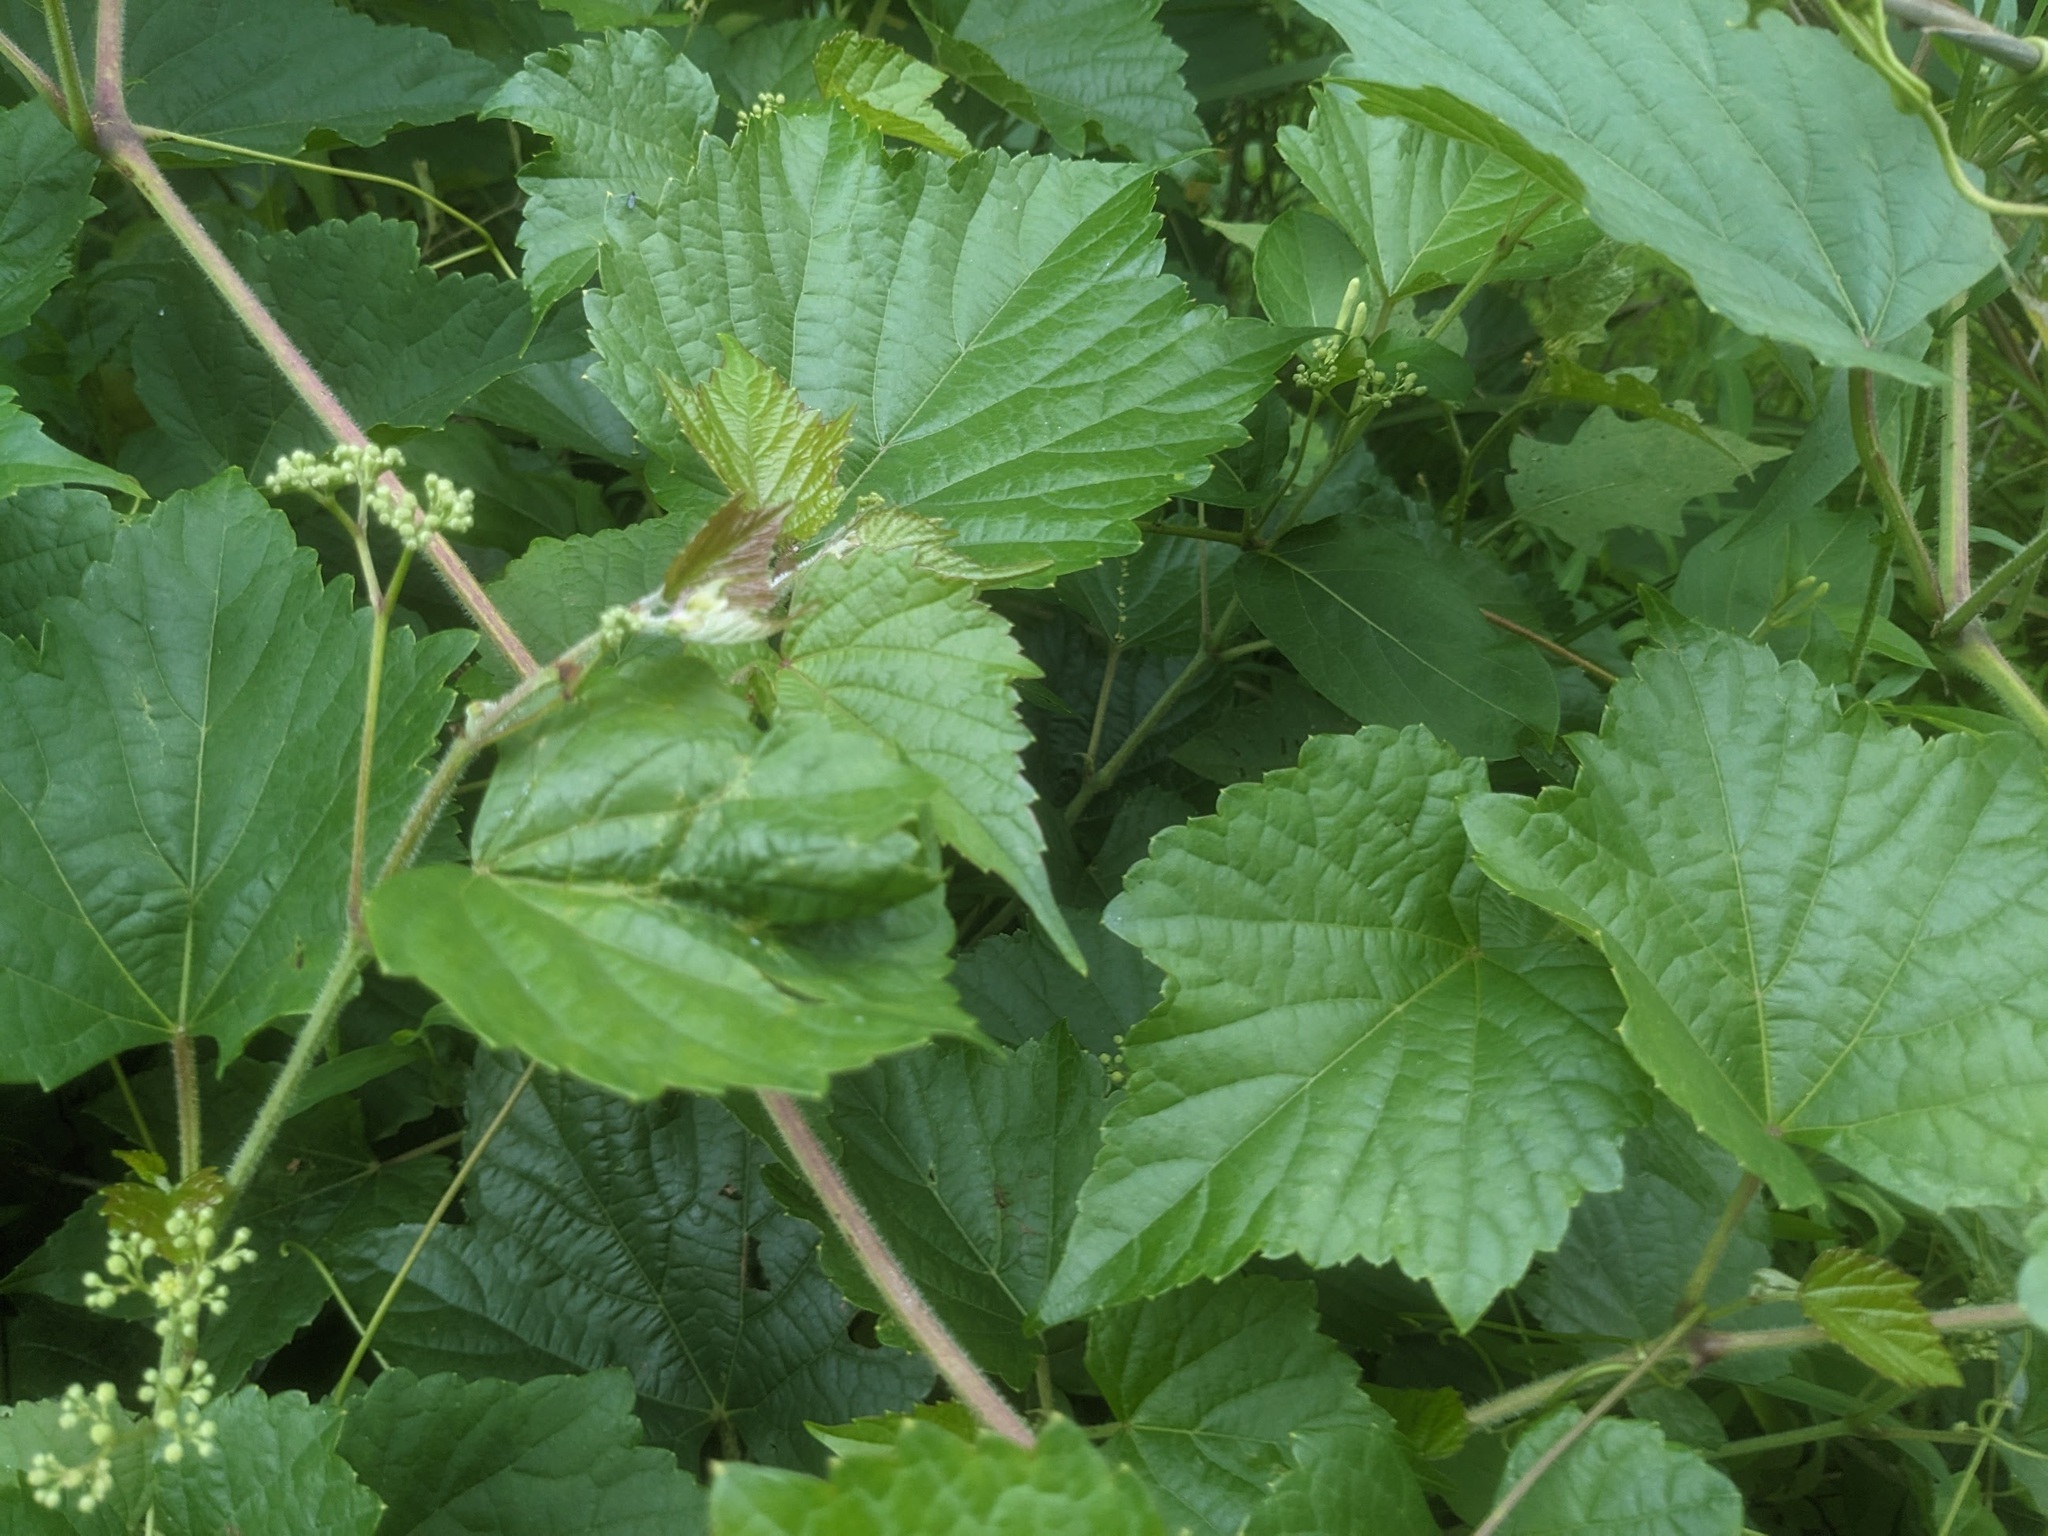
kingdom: Plantae
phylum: Tracheophyta
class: Magnoliopsida
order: Vitales
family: Vitaceae
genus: Ampelopsis
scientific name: Ampelopsis glandulosa
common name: Amur peppervine
